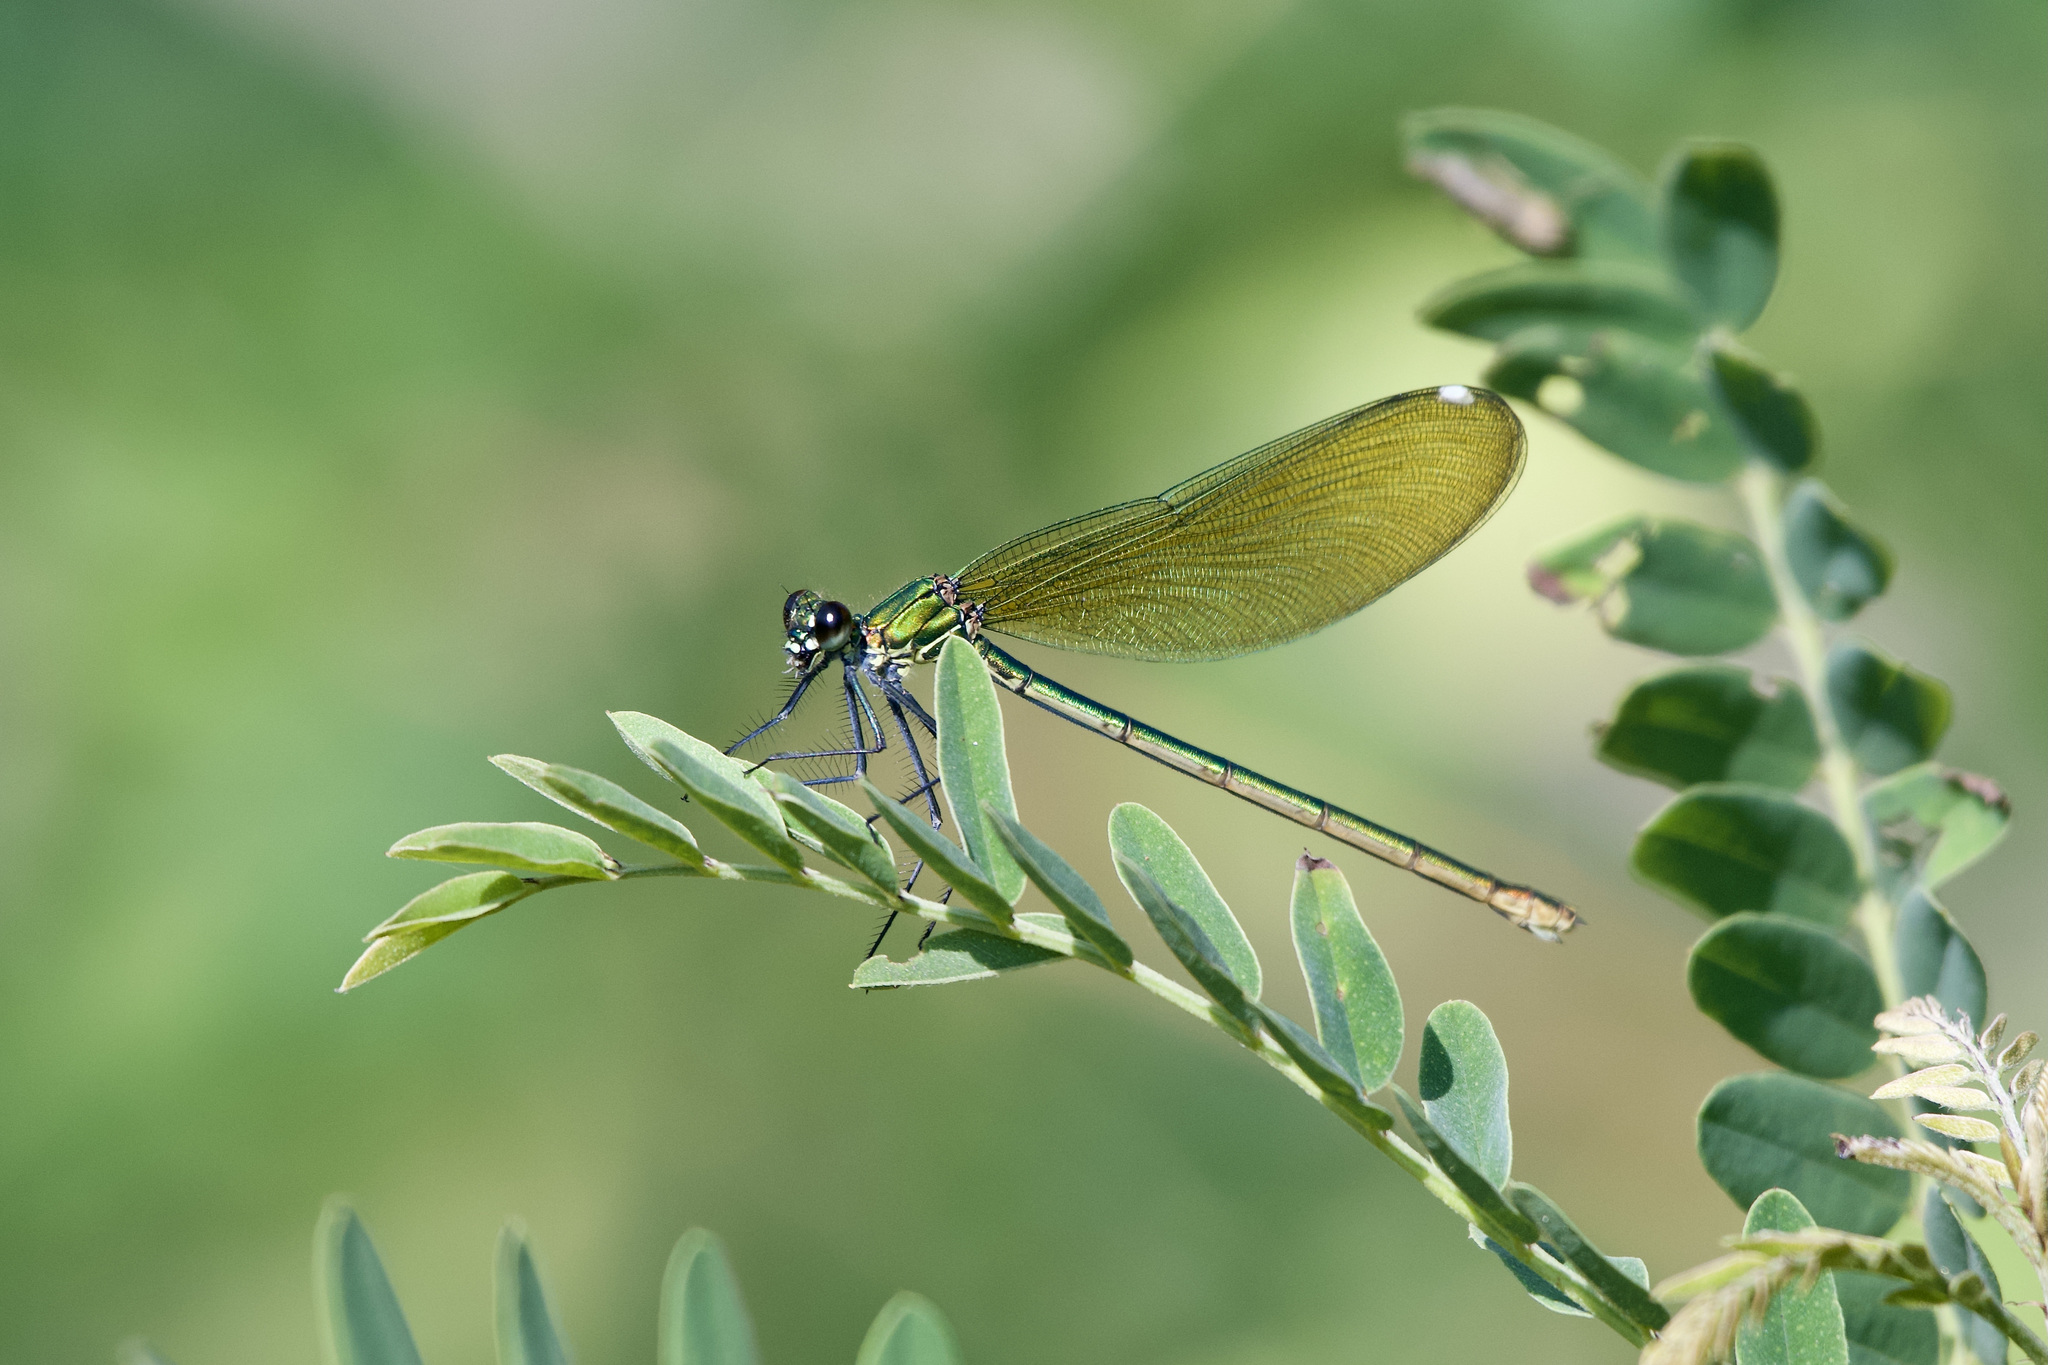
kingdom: Animalia
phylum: Arthropoda
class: Insecta
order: Odonata
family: Calopterygidae
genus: Calopteryx
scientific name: Calopteryx splendens
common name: Banded demoiselle
